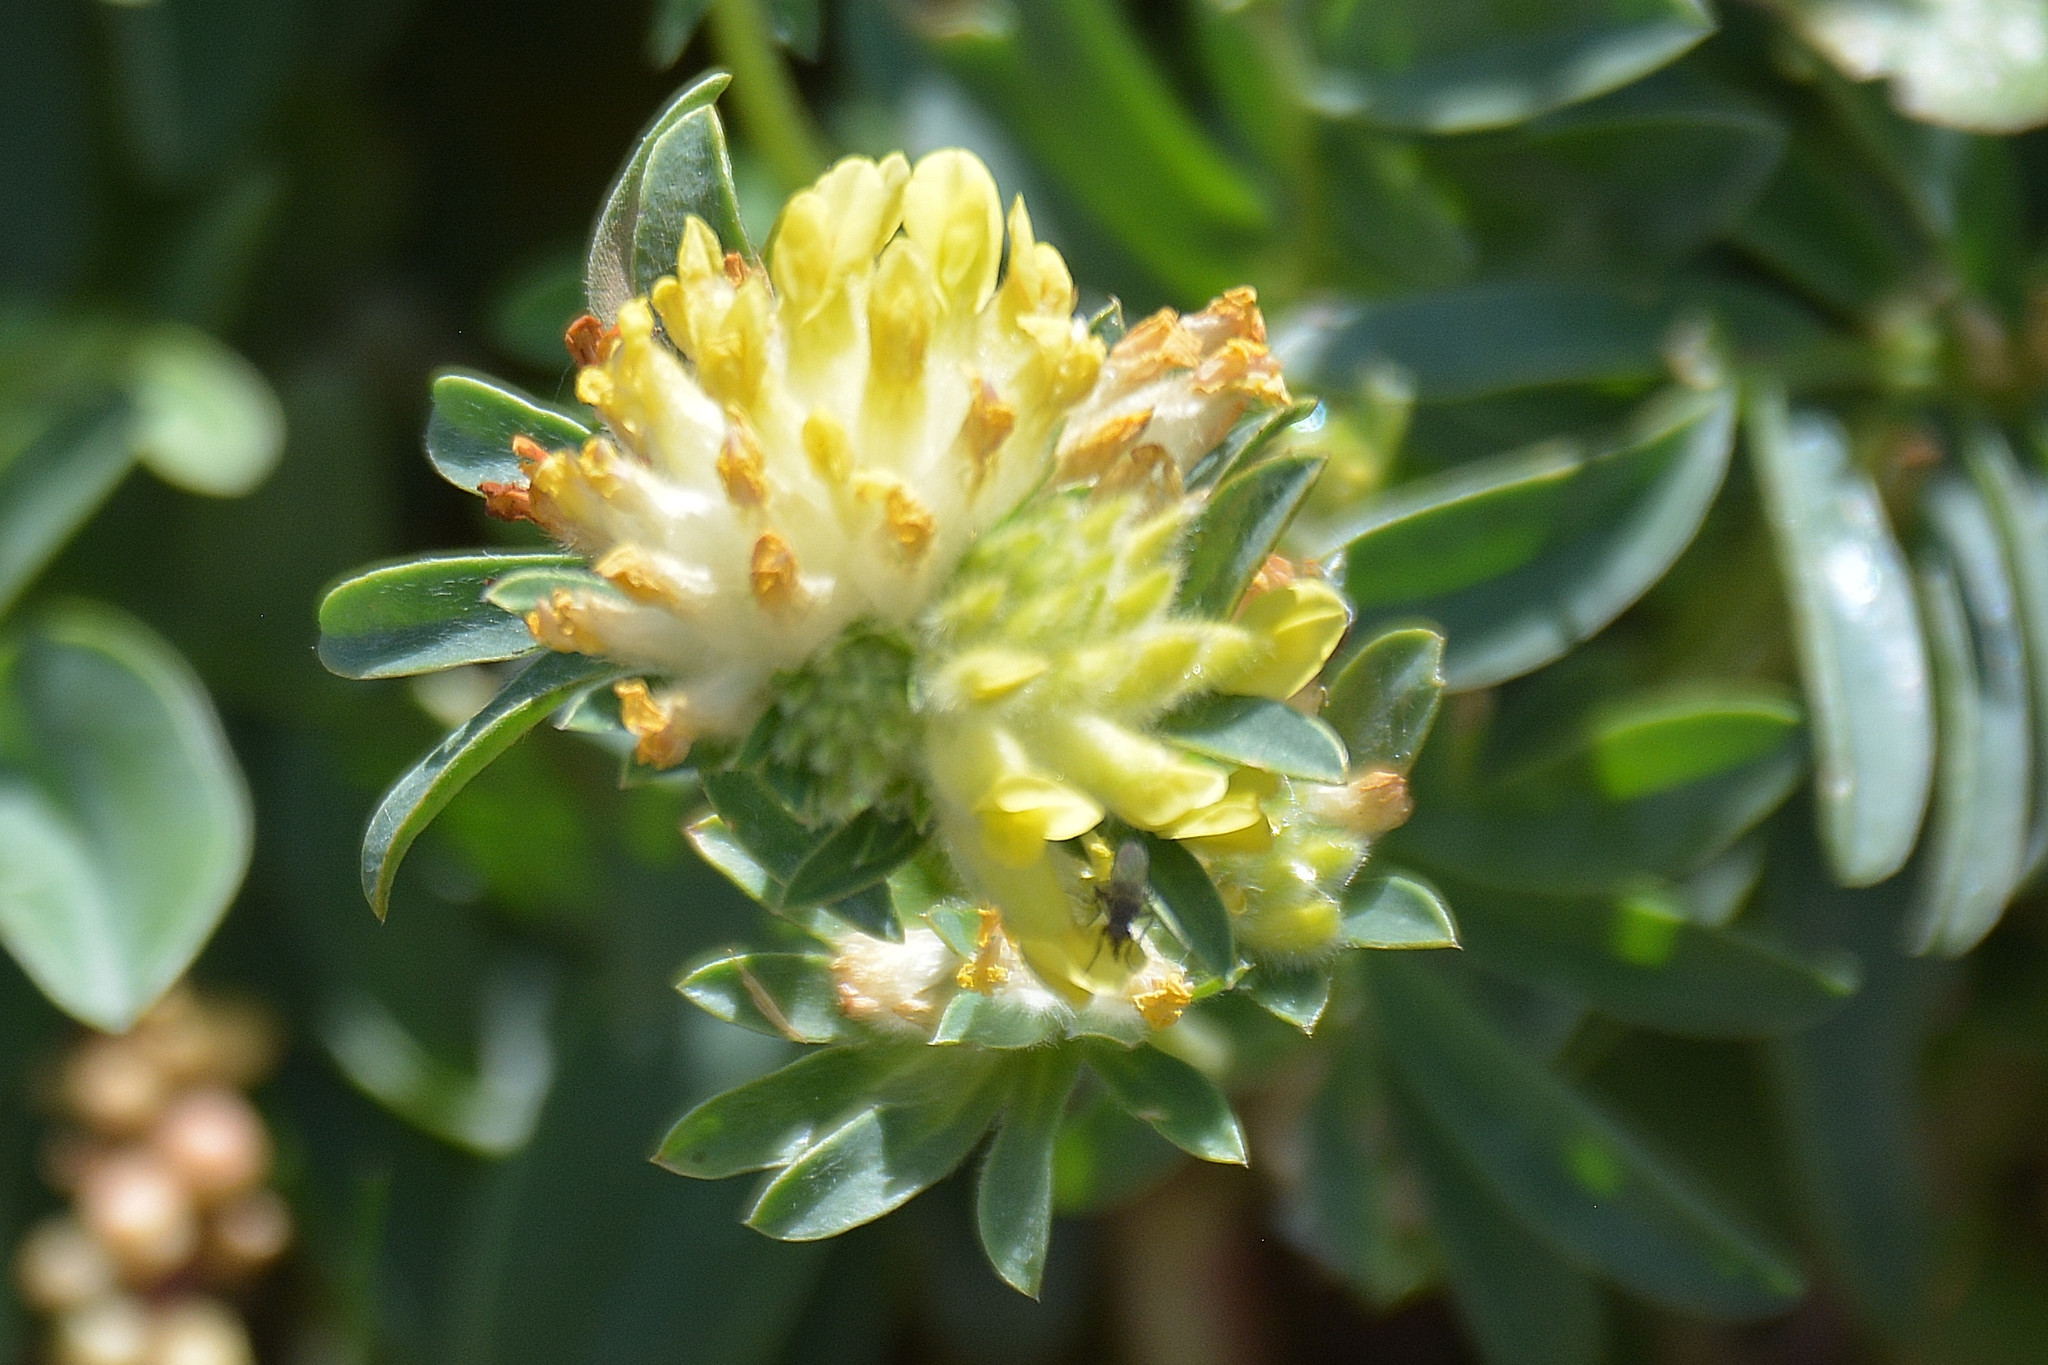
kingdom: Plantae
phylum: Tracheophyta
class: Magnoliopsida
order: Fabales
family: Fabaceae
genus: Anthyllis
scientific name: Anthyllis vulneraria
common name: Kidney vetch
